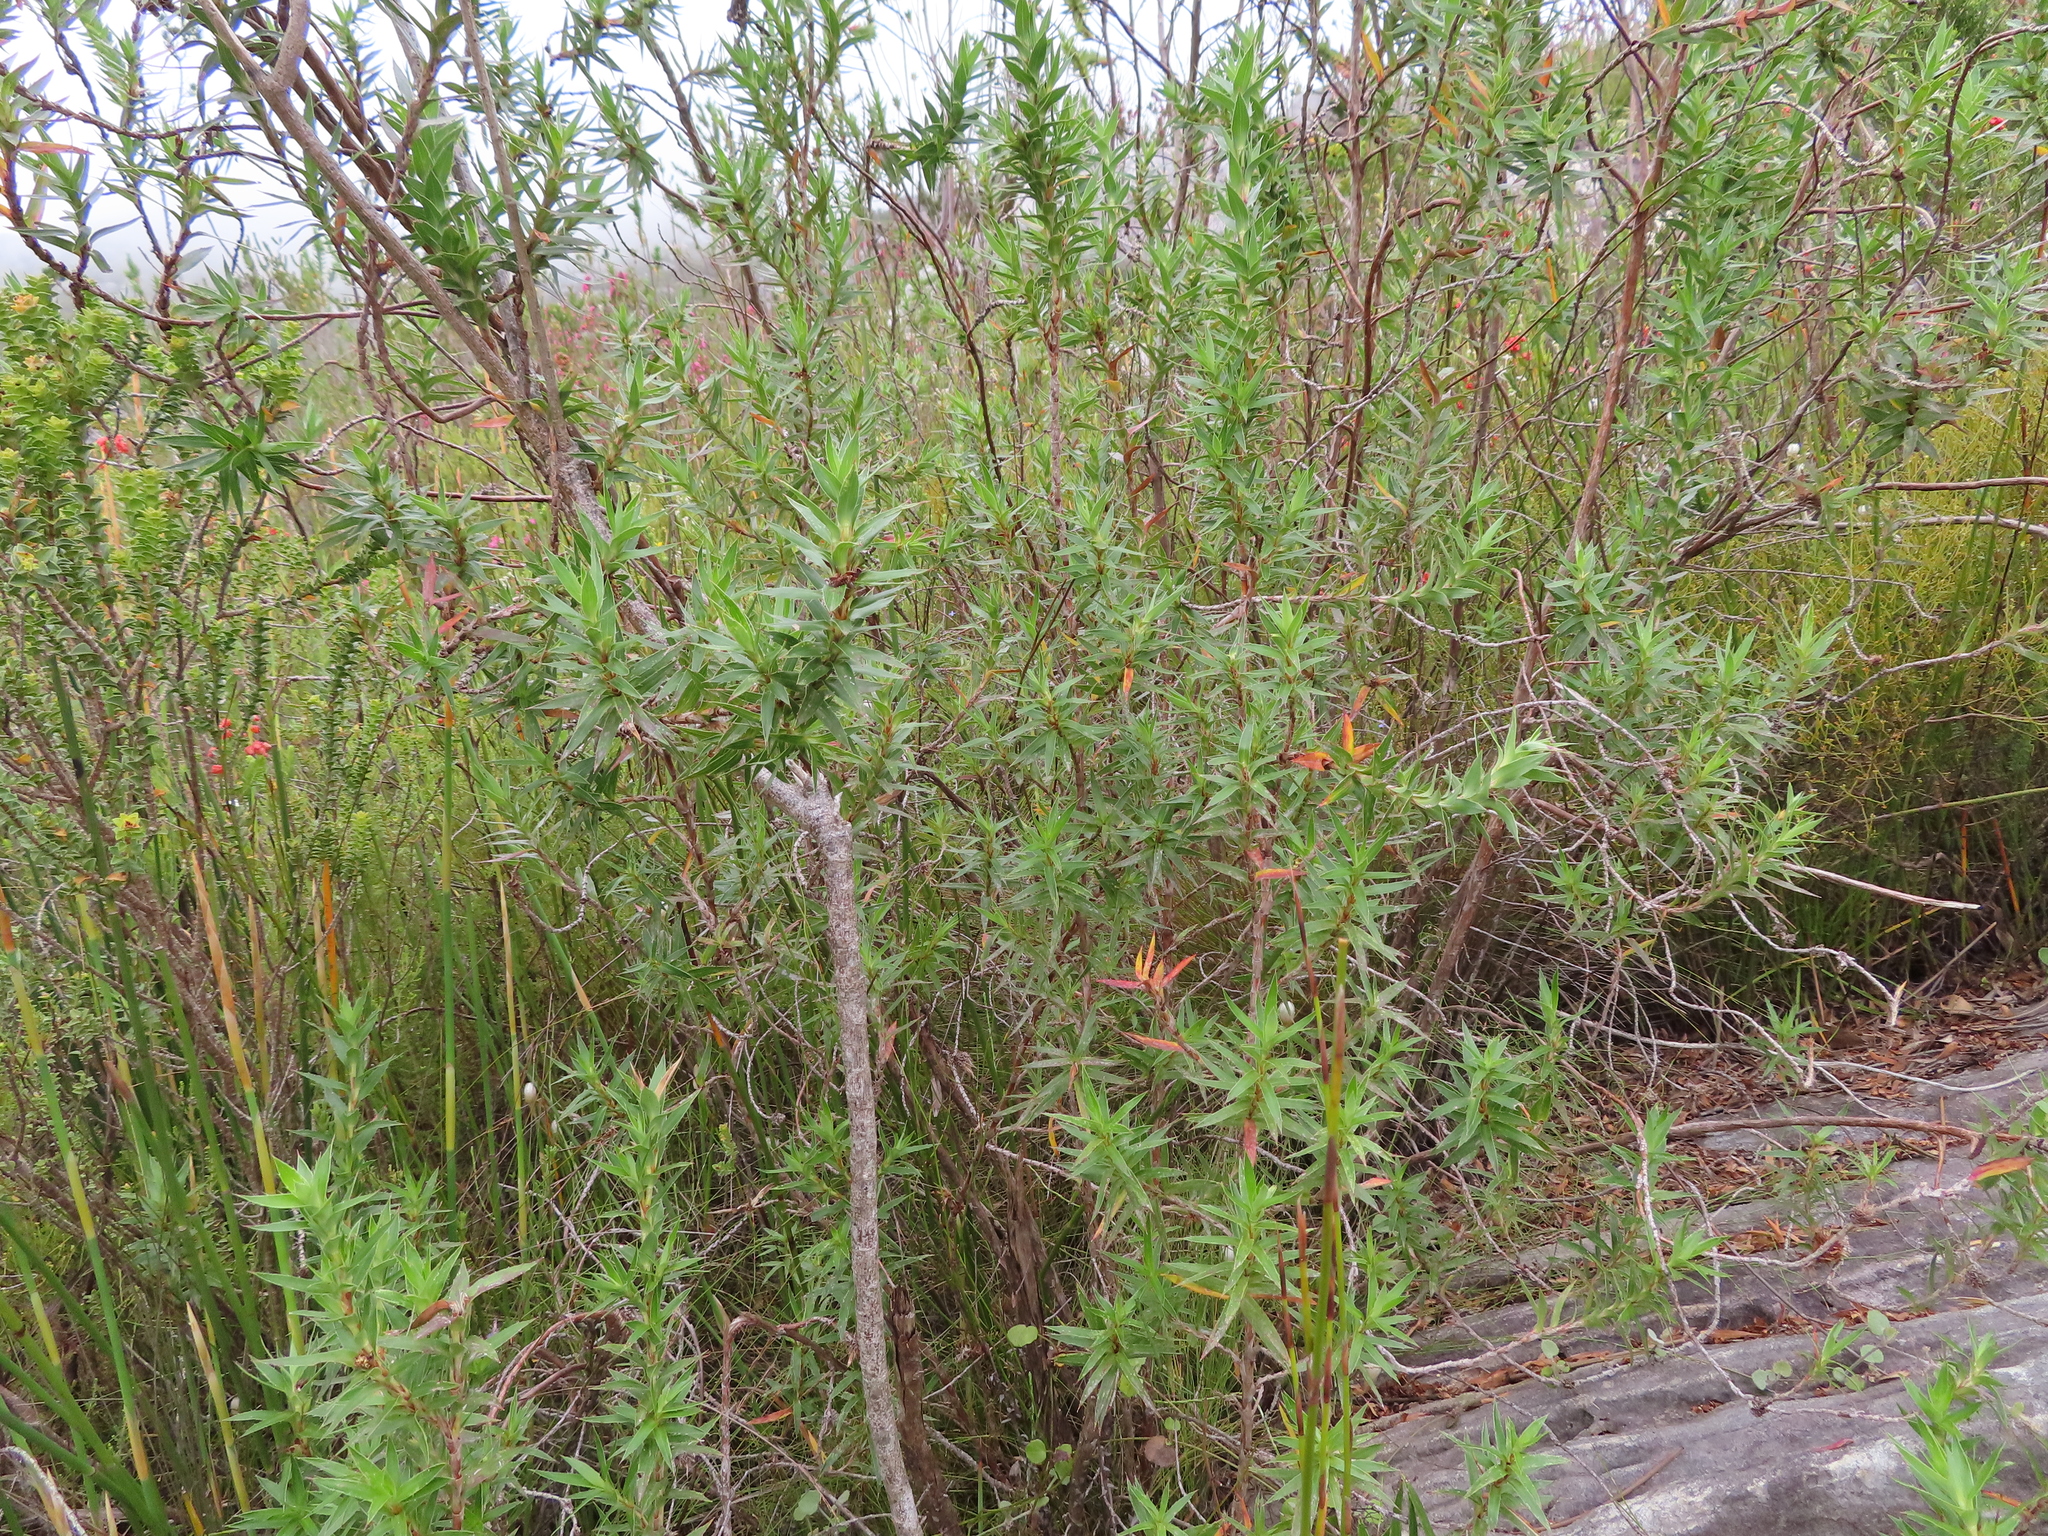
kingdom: Plantae
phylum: Tracheophyta
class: Magnoliopsida
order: Rosales
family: Rosaceae
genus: Cliffortia
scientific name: Cliffortia lanceolata
